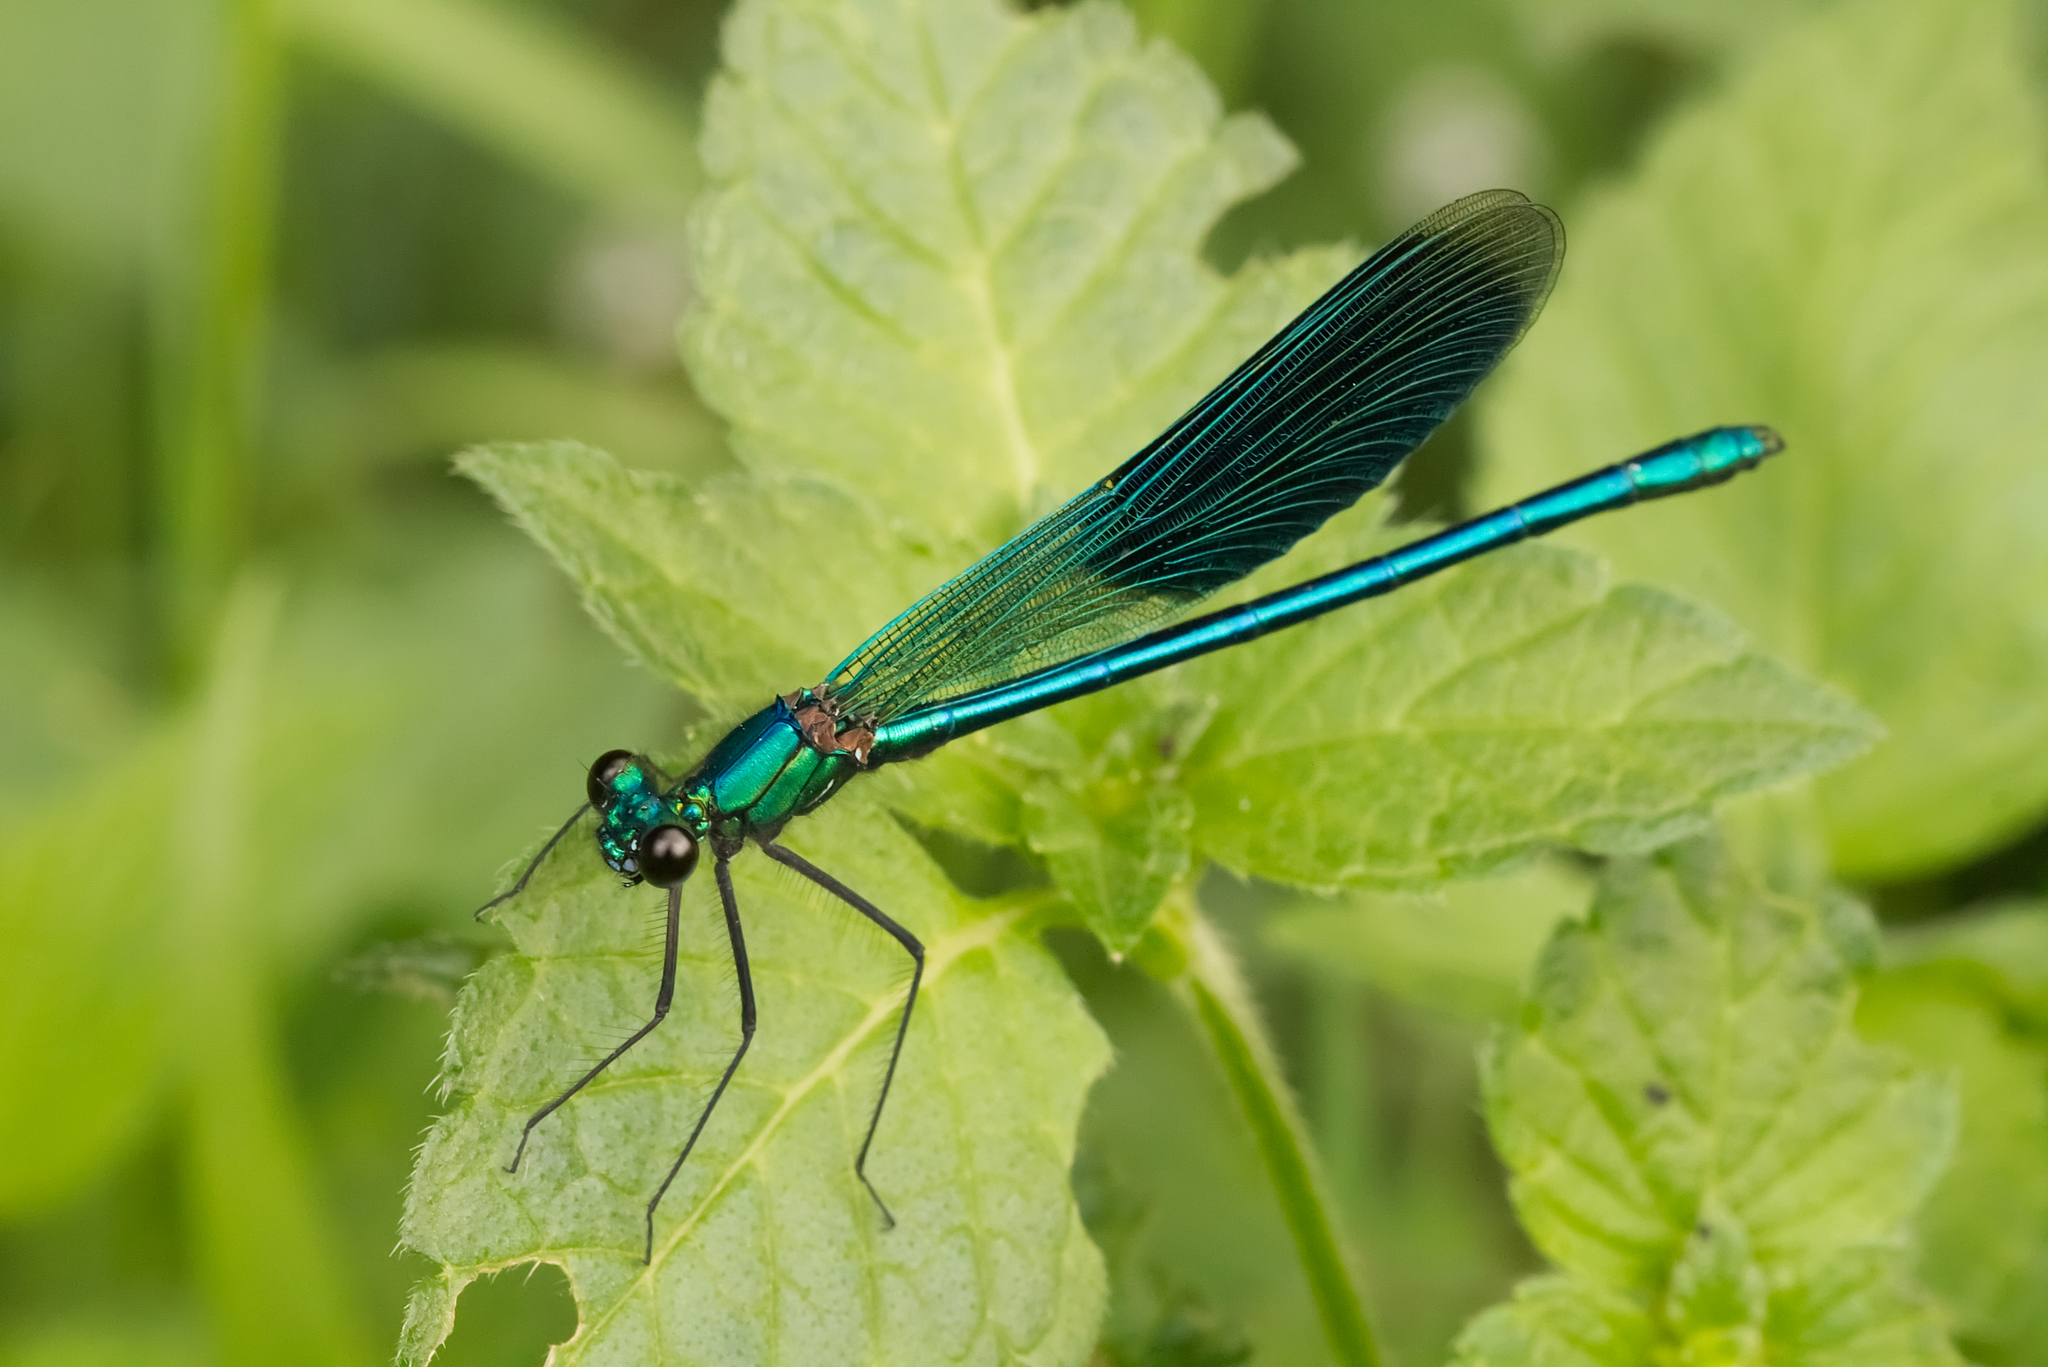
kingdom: Animalia
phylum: Arthropoda
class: Insecta
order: Odonata
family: Calopterygidae
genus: Calopteryx
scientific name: Calopteryx splendens
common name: Banded demoiselle
